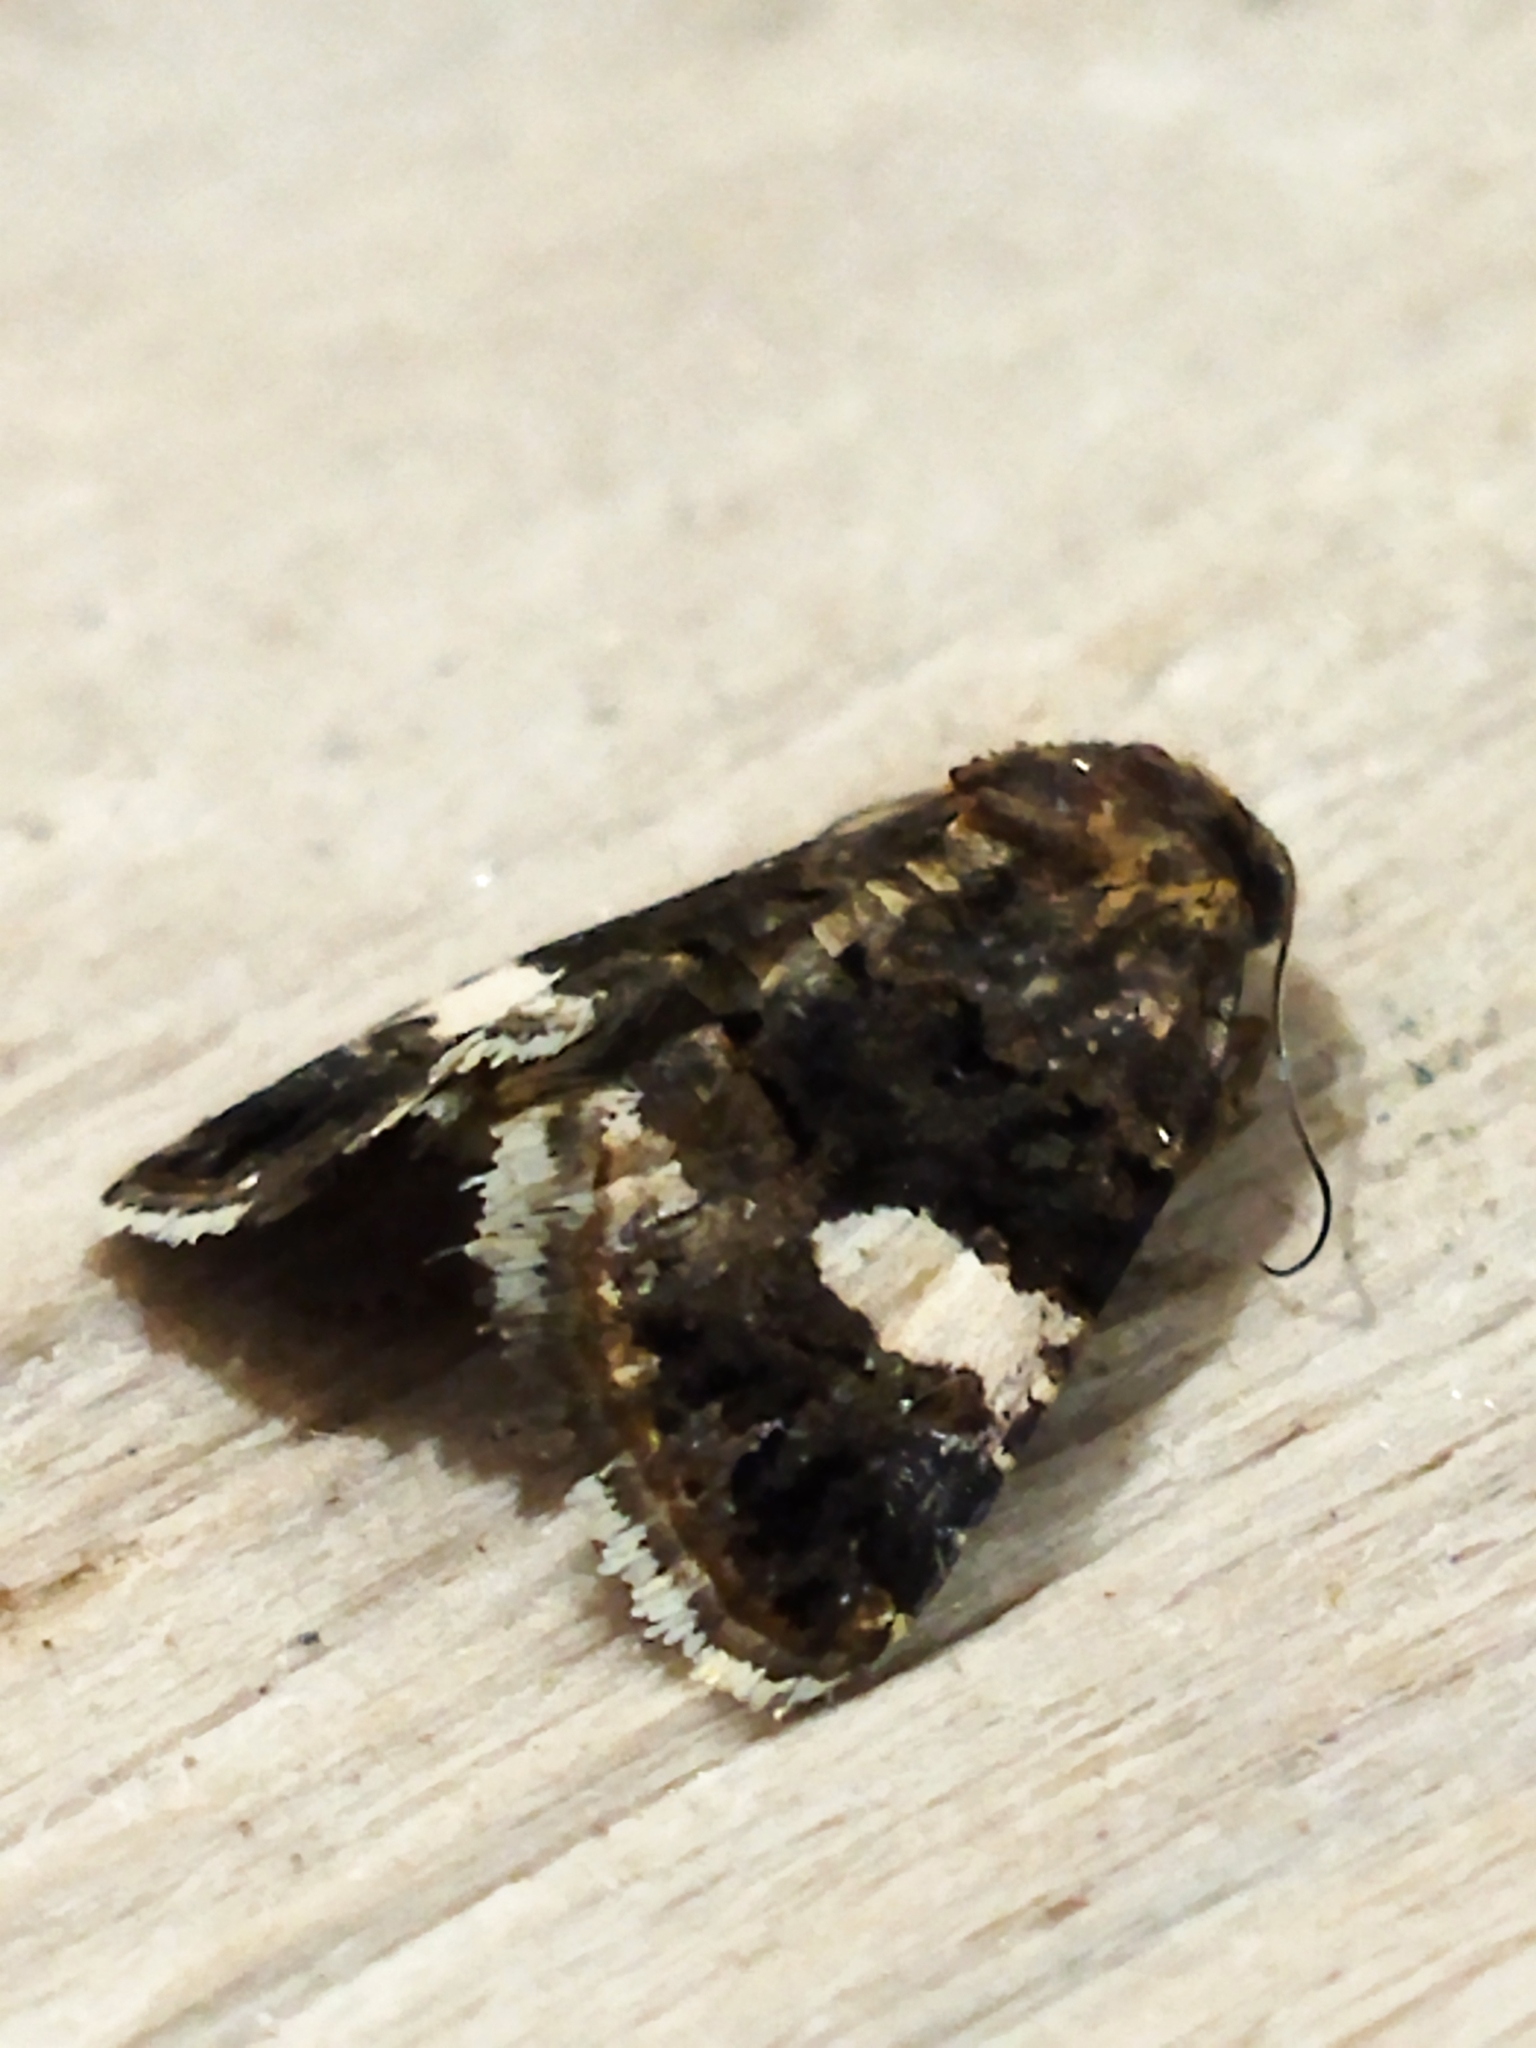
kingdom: Animalia
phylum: Arthropoda
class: Insecta
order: Lepidoptera
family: Erebidae
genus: Tyta
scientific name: Tyta luctuosa
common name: Four-spotted
